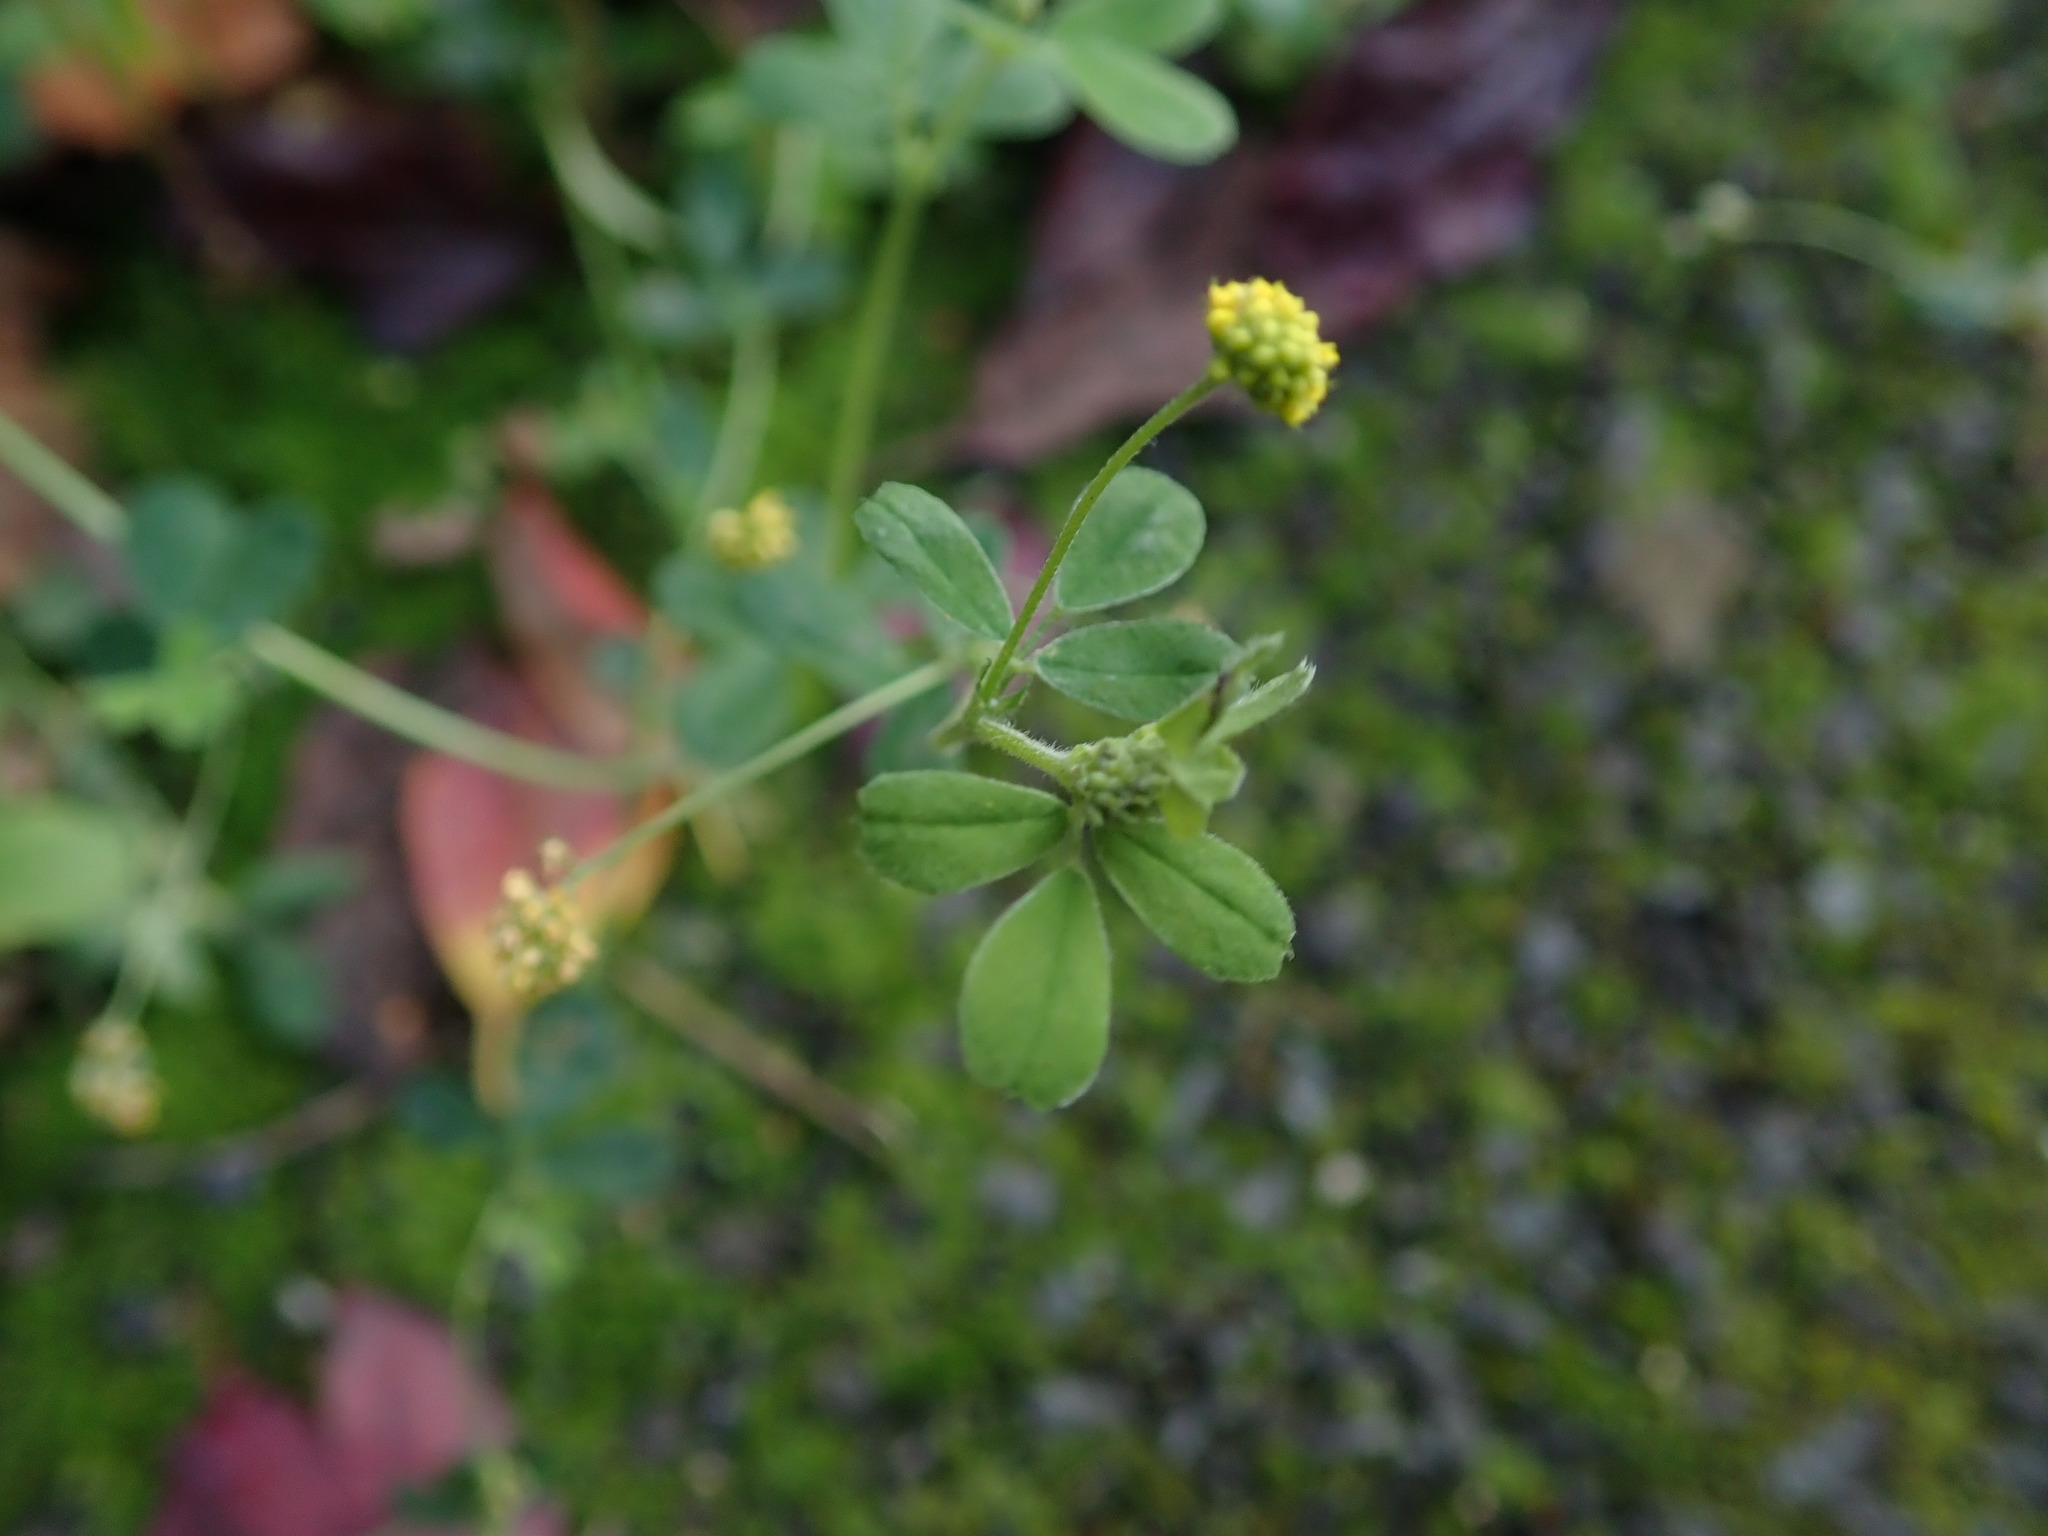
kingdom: Plantae
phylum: Tracheophyta
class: Magnoliopsida
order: Fabales
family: Fabaceae
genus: Medicago
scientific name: Medicago lupulina
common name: Black medick
